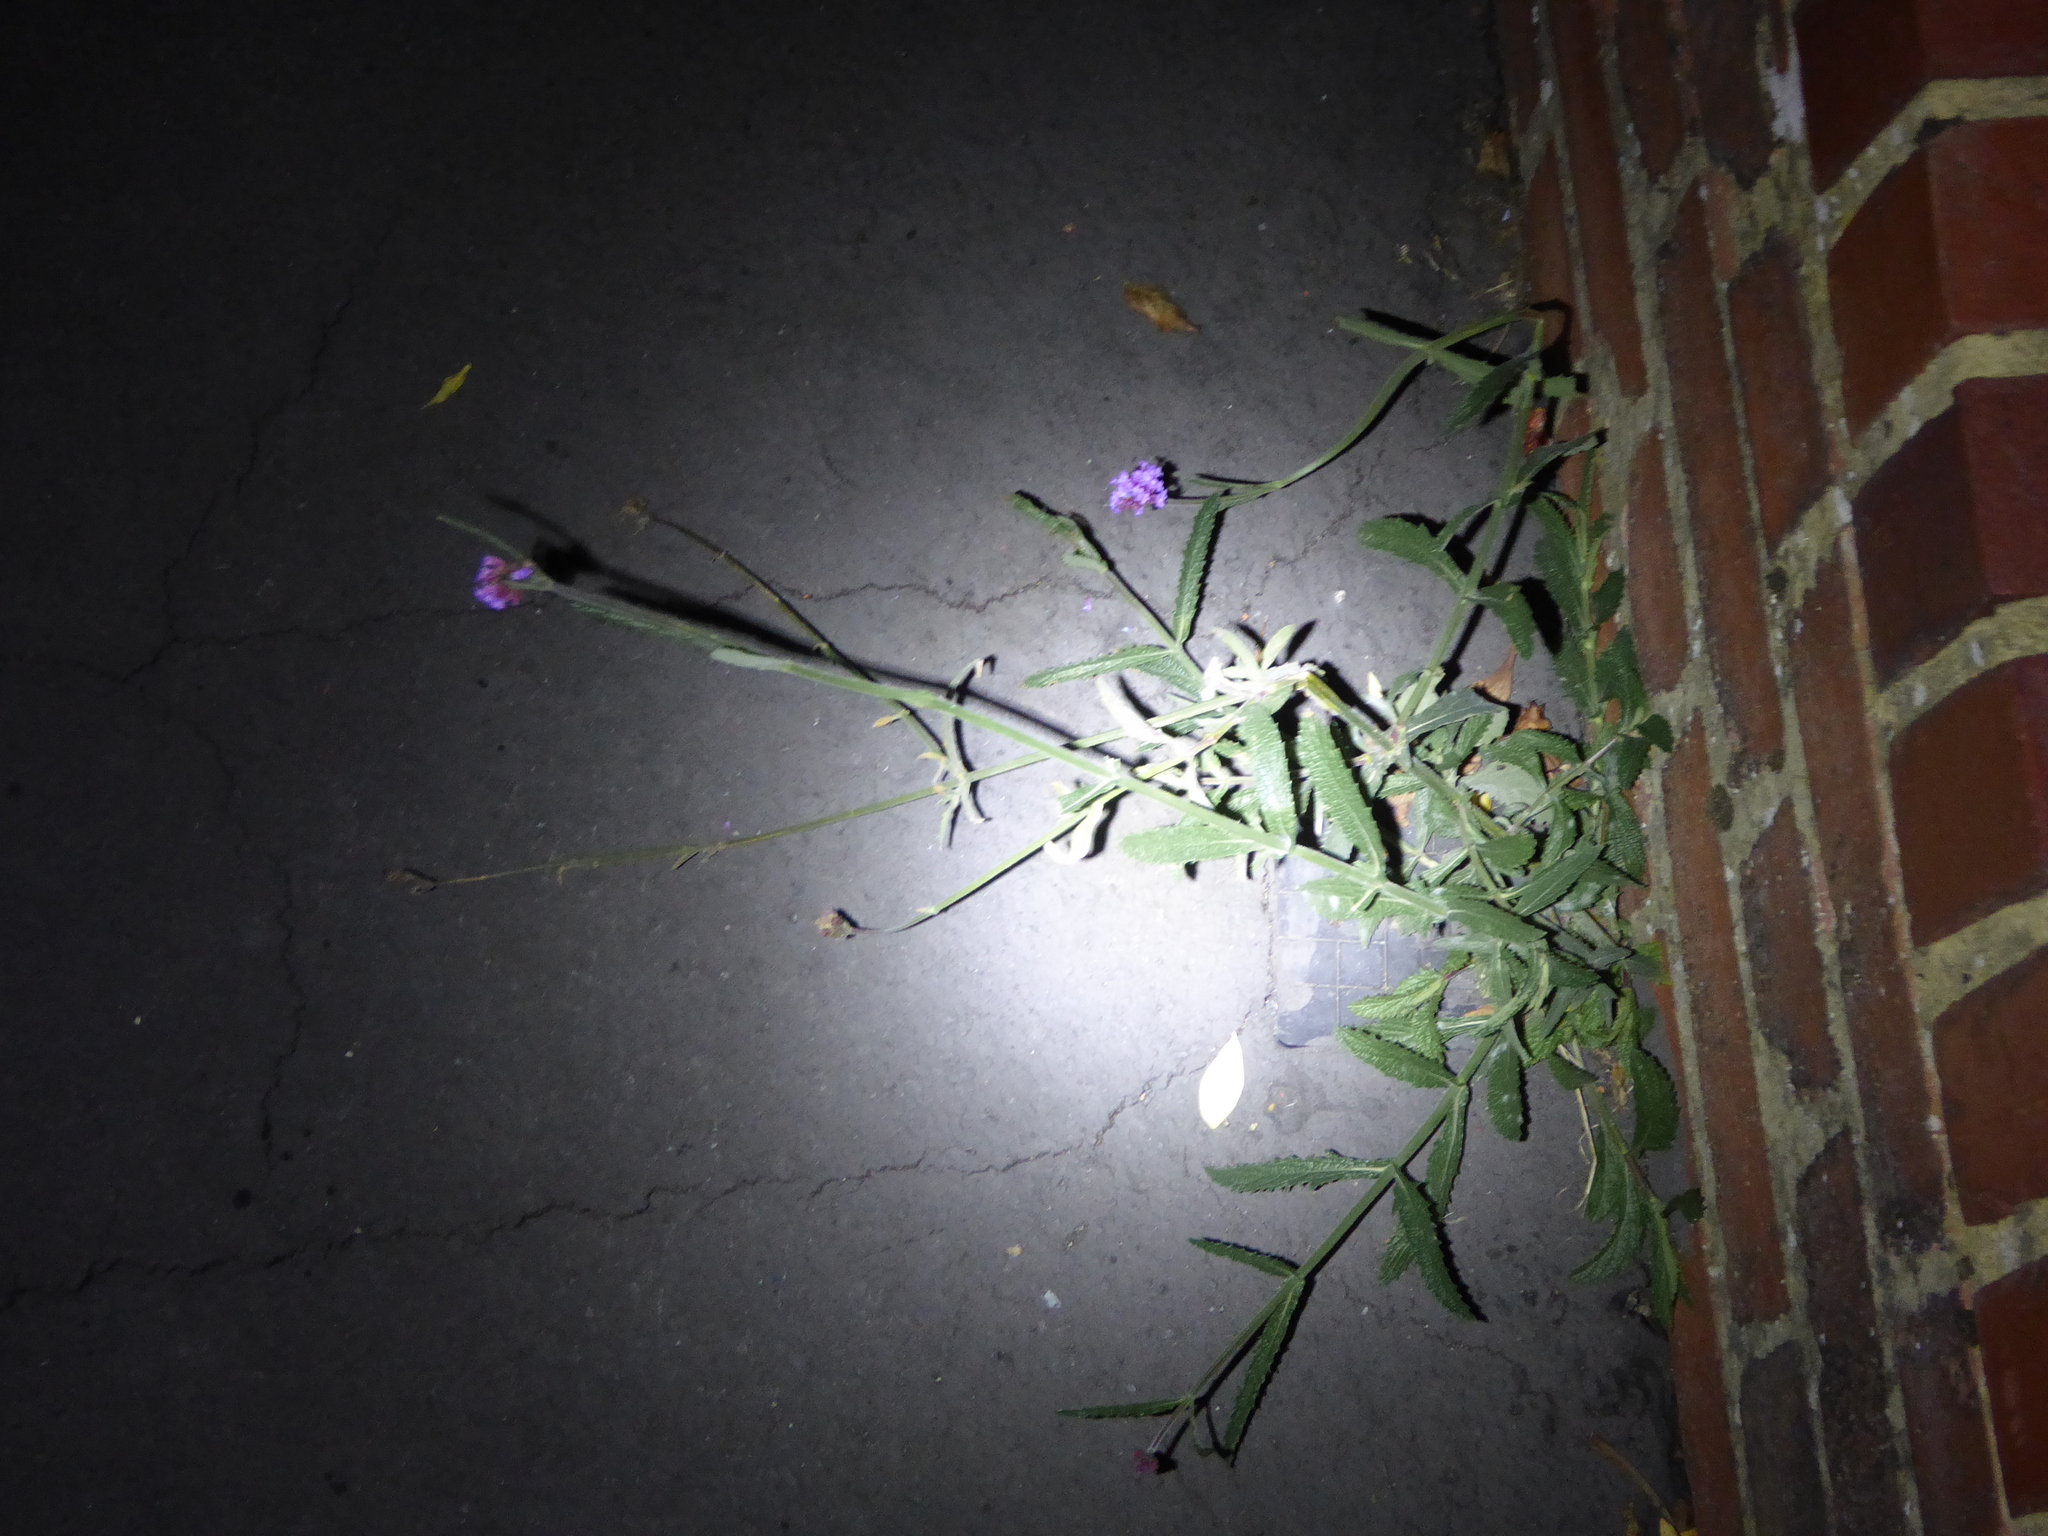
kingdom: Plantae
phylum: Tracheophyta
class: Magnoliopsida
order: Lamiales
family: Verbenaceae
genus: Verbena
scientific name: Verbena bonariensis
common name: Purpletop vervain
